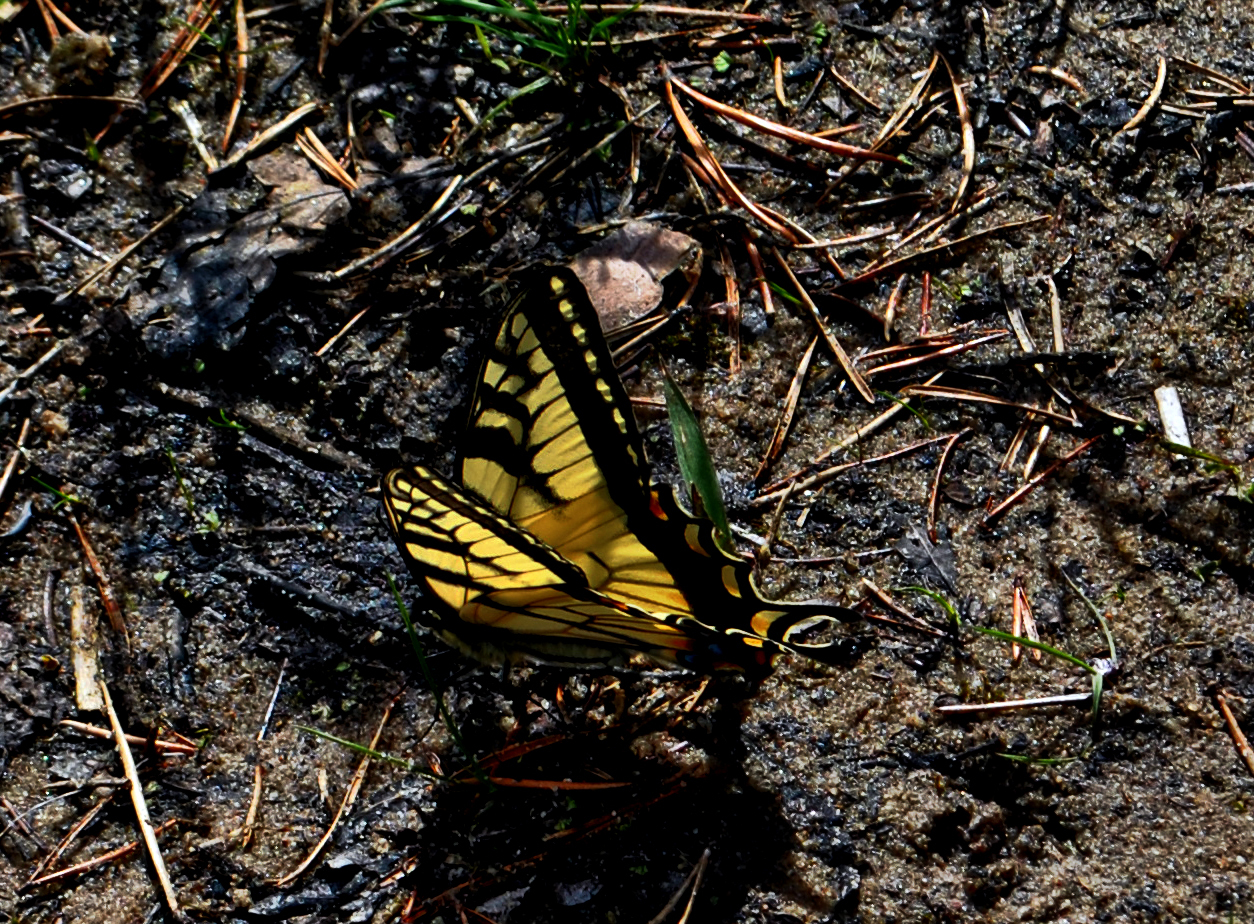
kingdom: Animalia
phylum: Arthropoda
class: Insecta
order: Lepidoptera
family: Papilionidae
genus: Papilio
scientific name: Papilio canadensis
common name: Canadian tiger swallowtail
